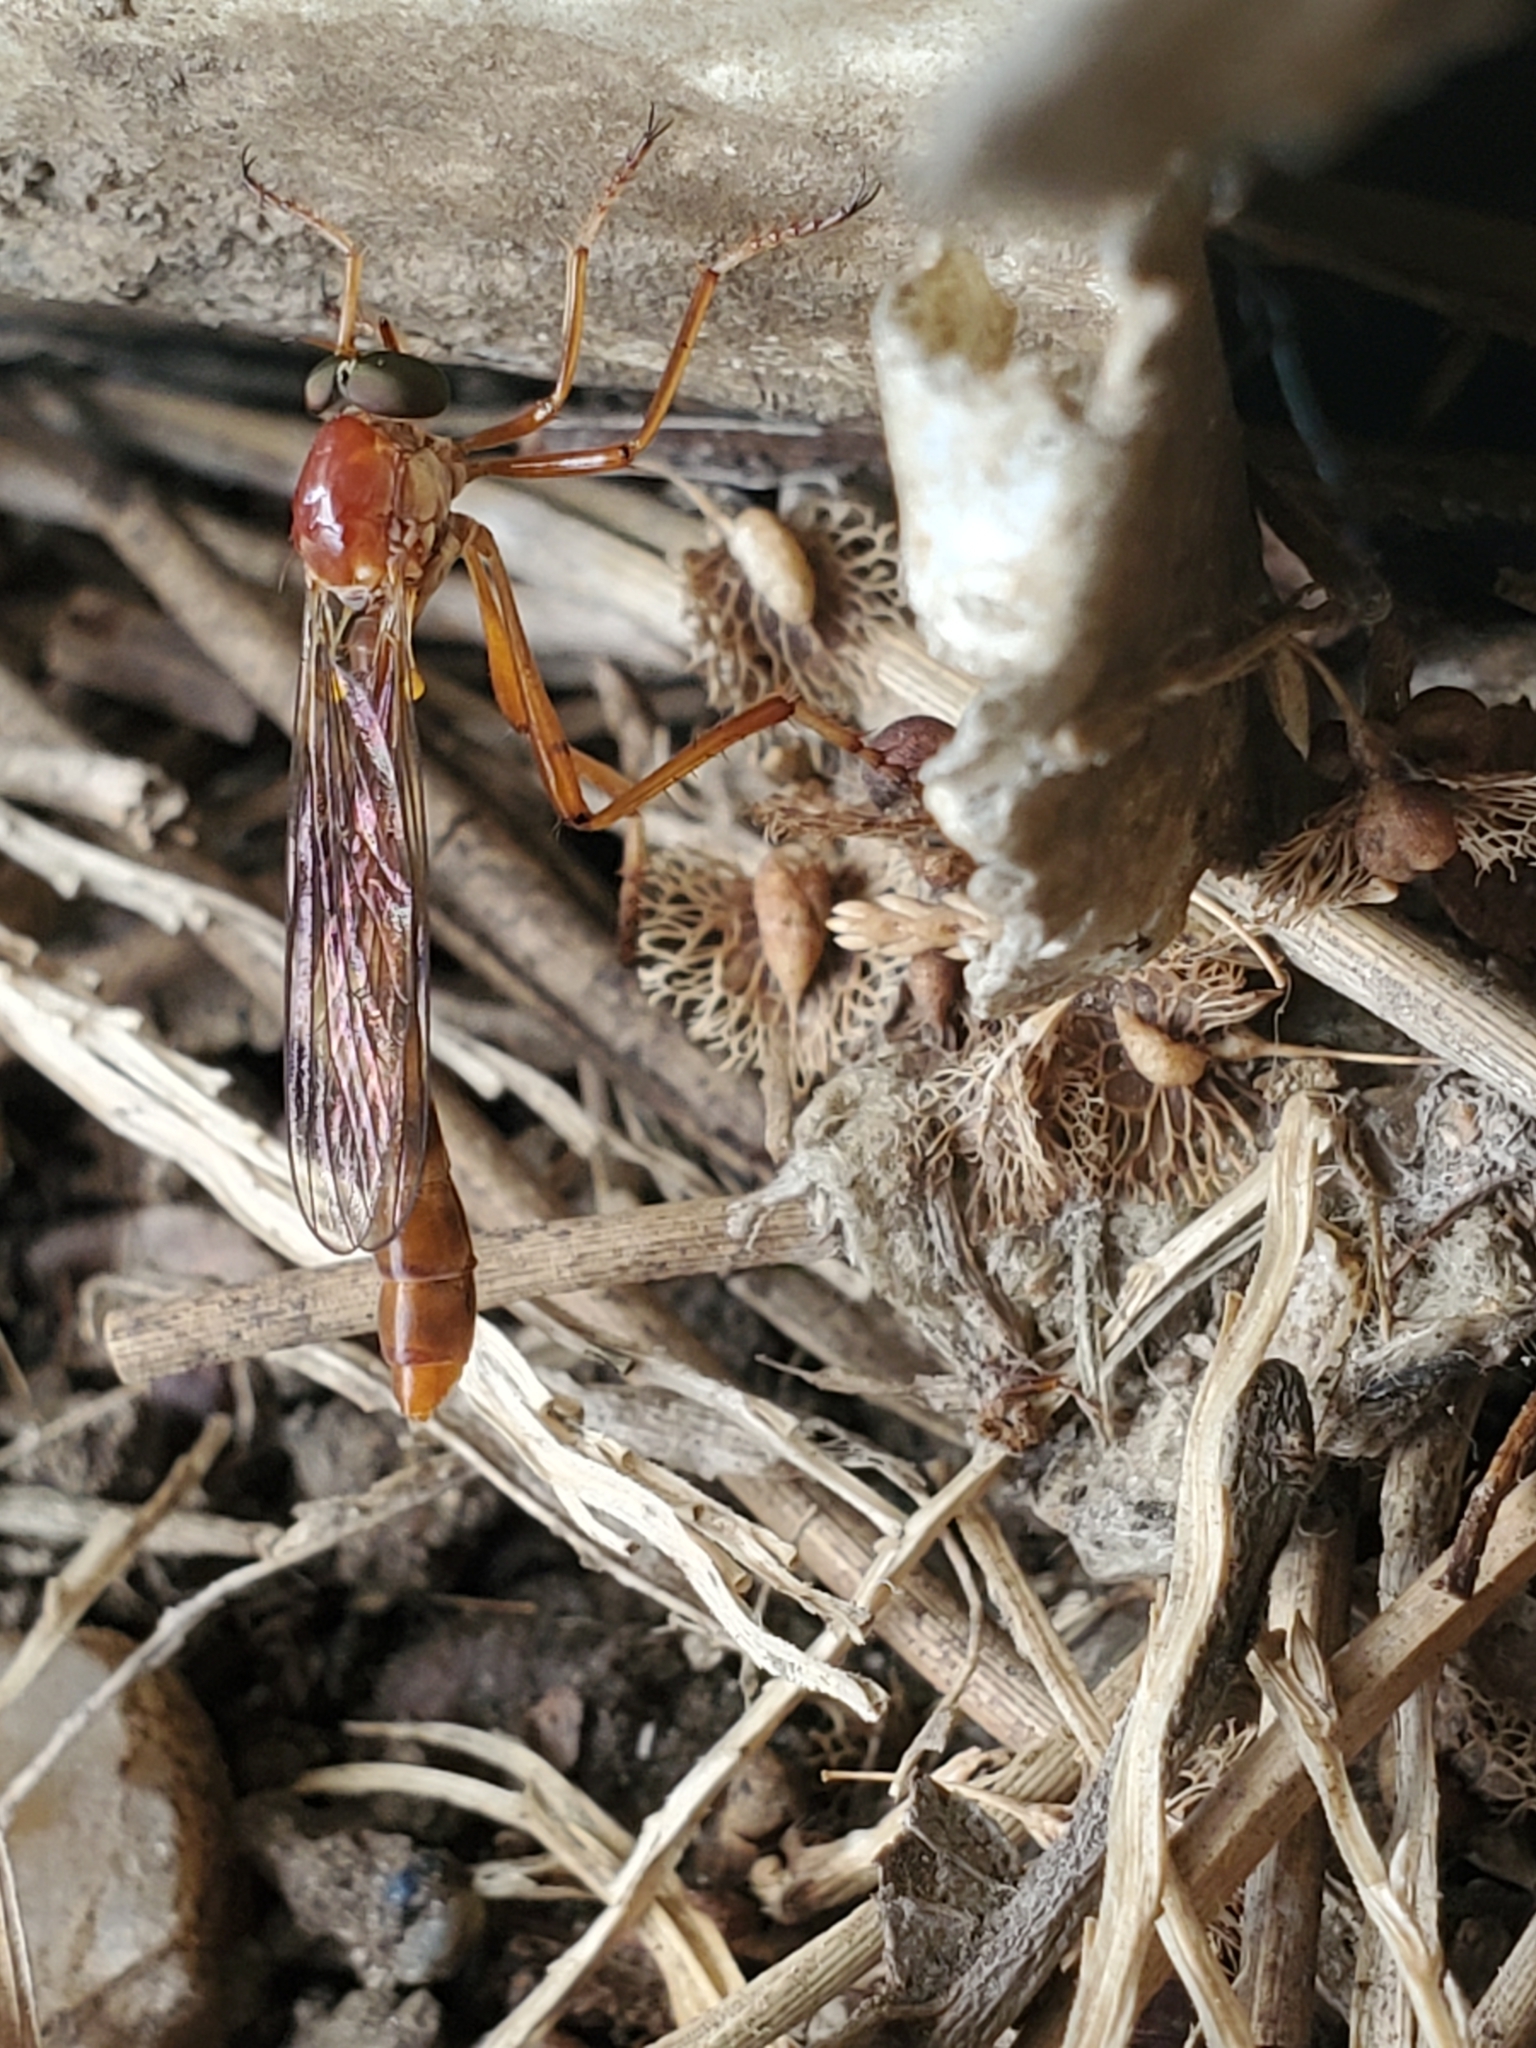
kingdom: Animalia
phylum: Arthropoda
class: Insecta
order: Diptera
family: Asilidae
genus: Tipulogaster
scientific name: Tipulogaster glabrata
